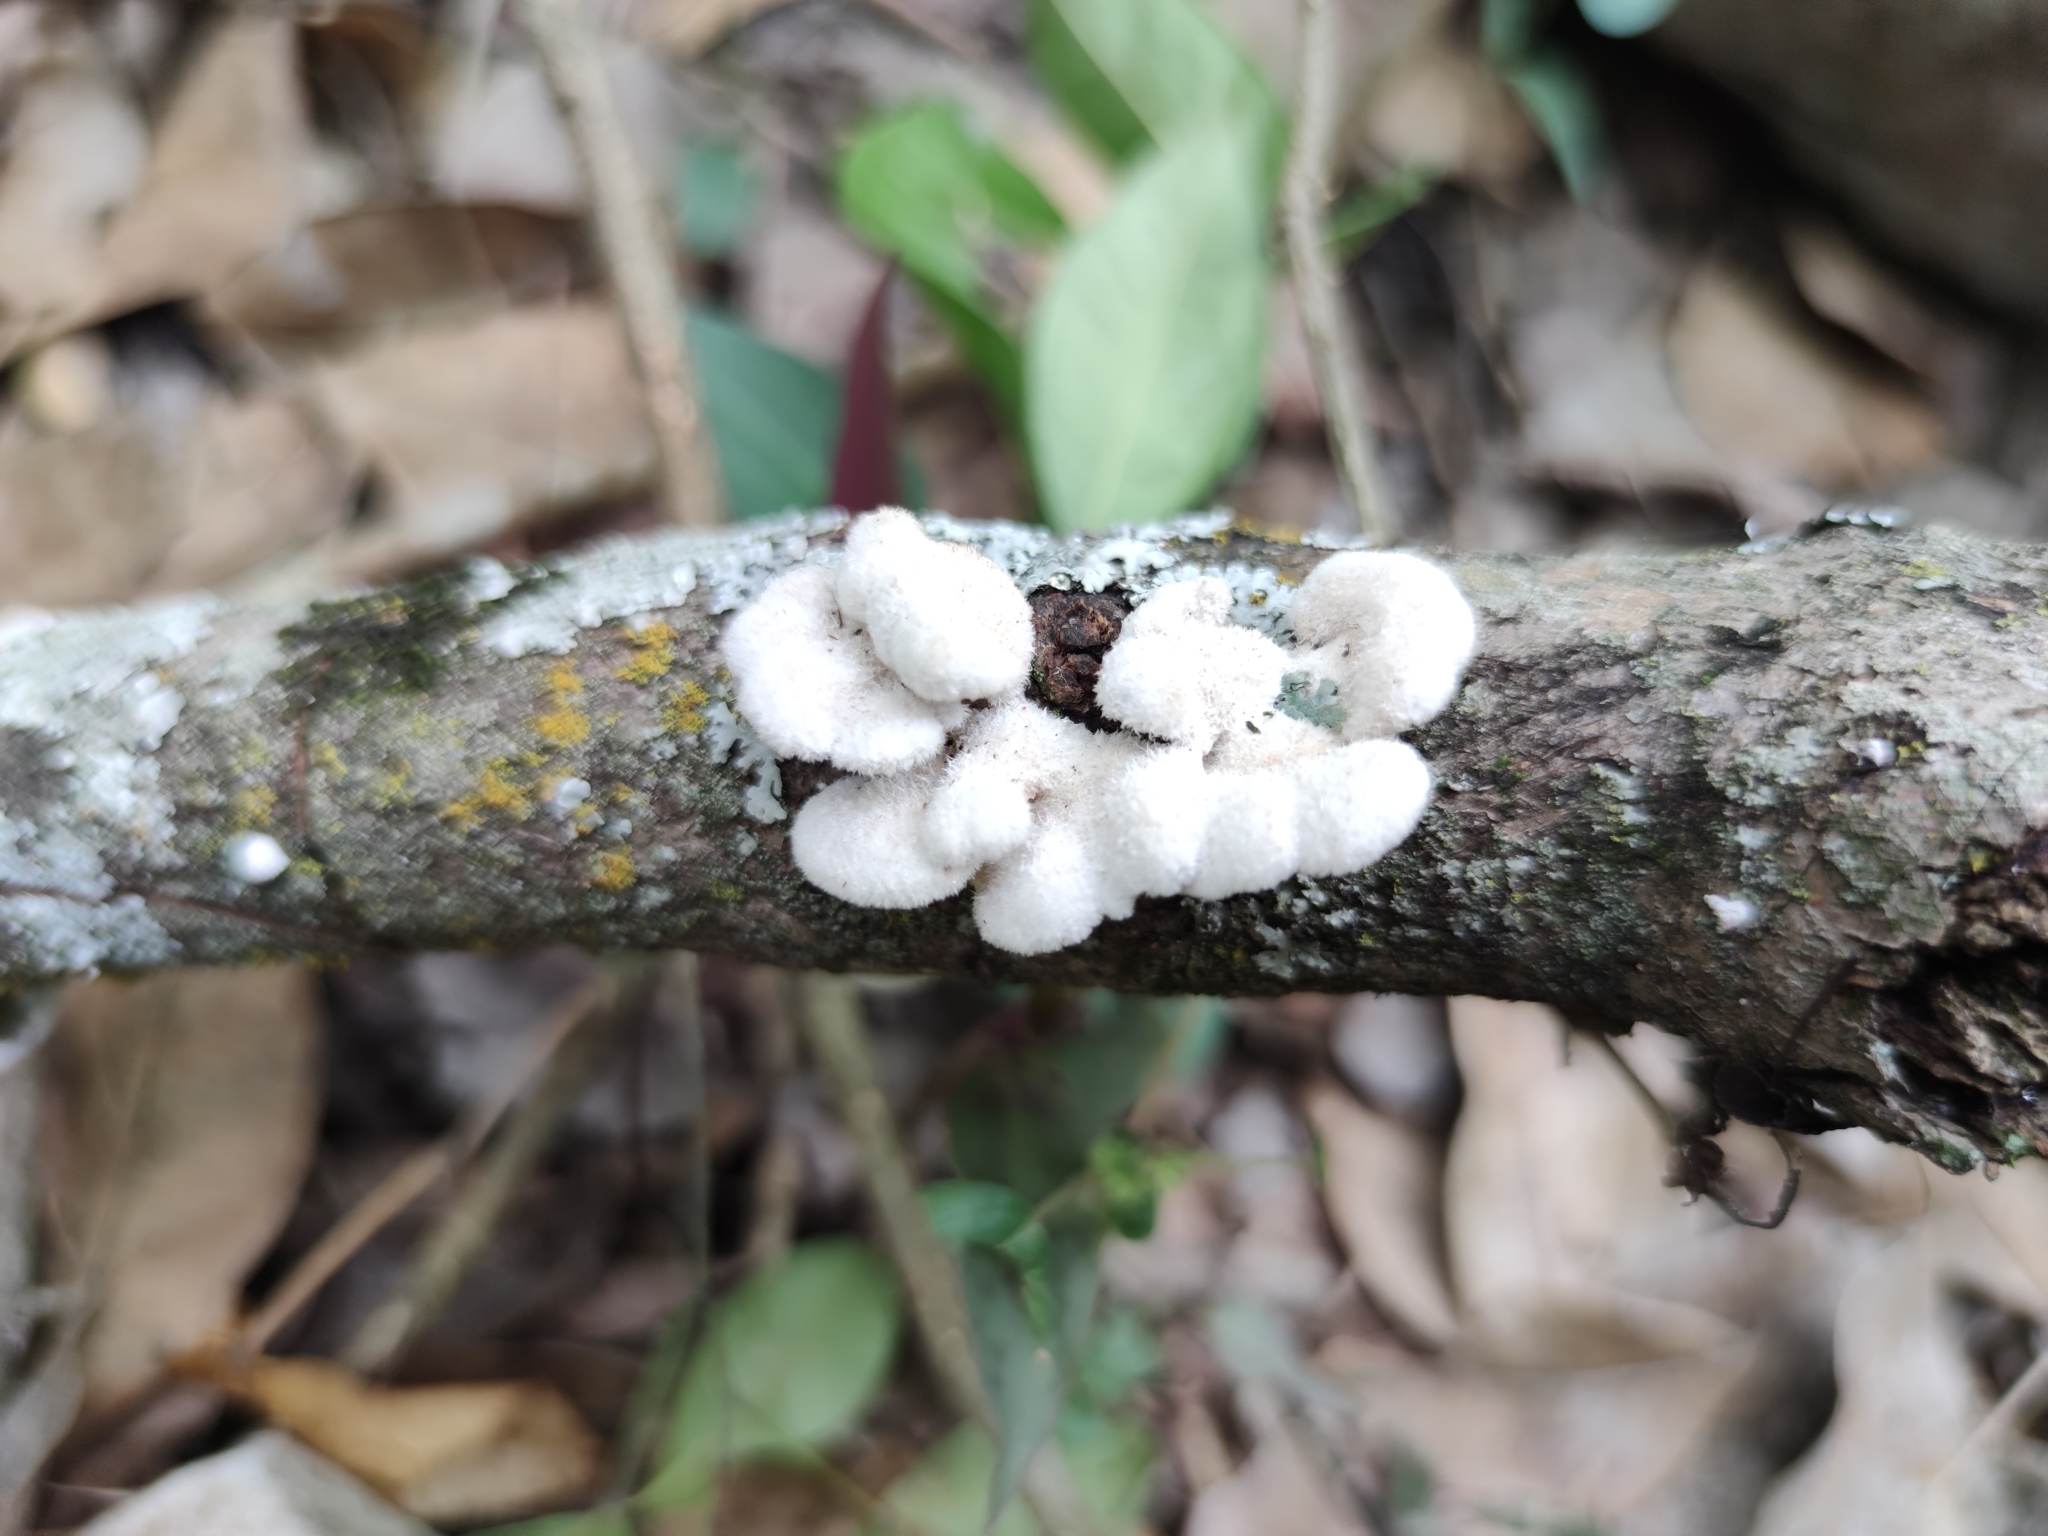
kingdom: Fungi
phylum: Basidiomycota
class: Agaricomycetes
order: Agaricales
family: Schizophyllaceae
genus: Schizophyllum
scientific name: Schizophyllum commune
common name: Common porecrust
